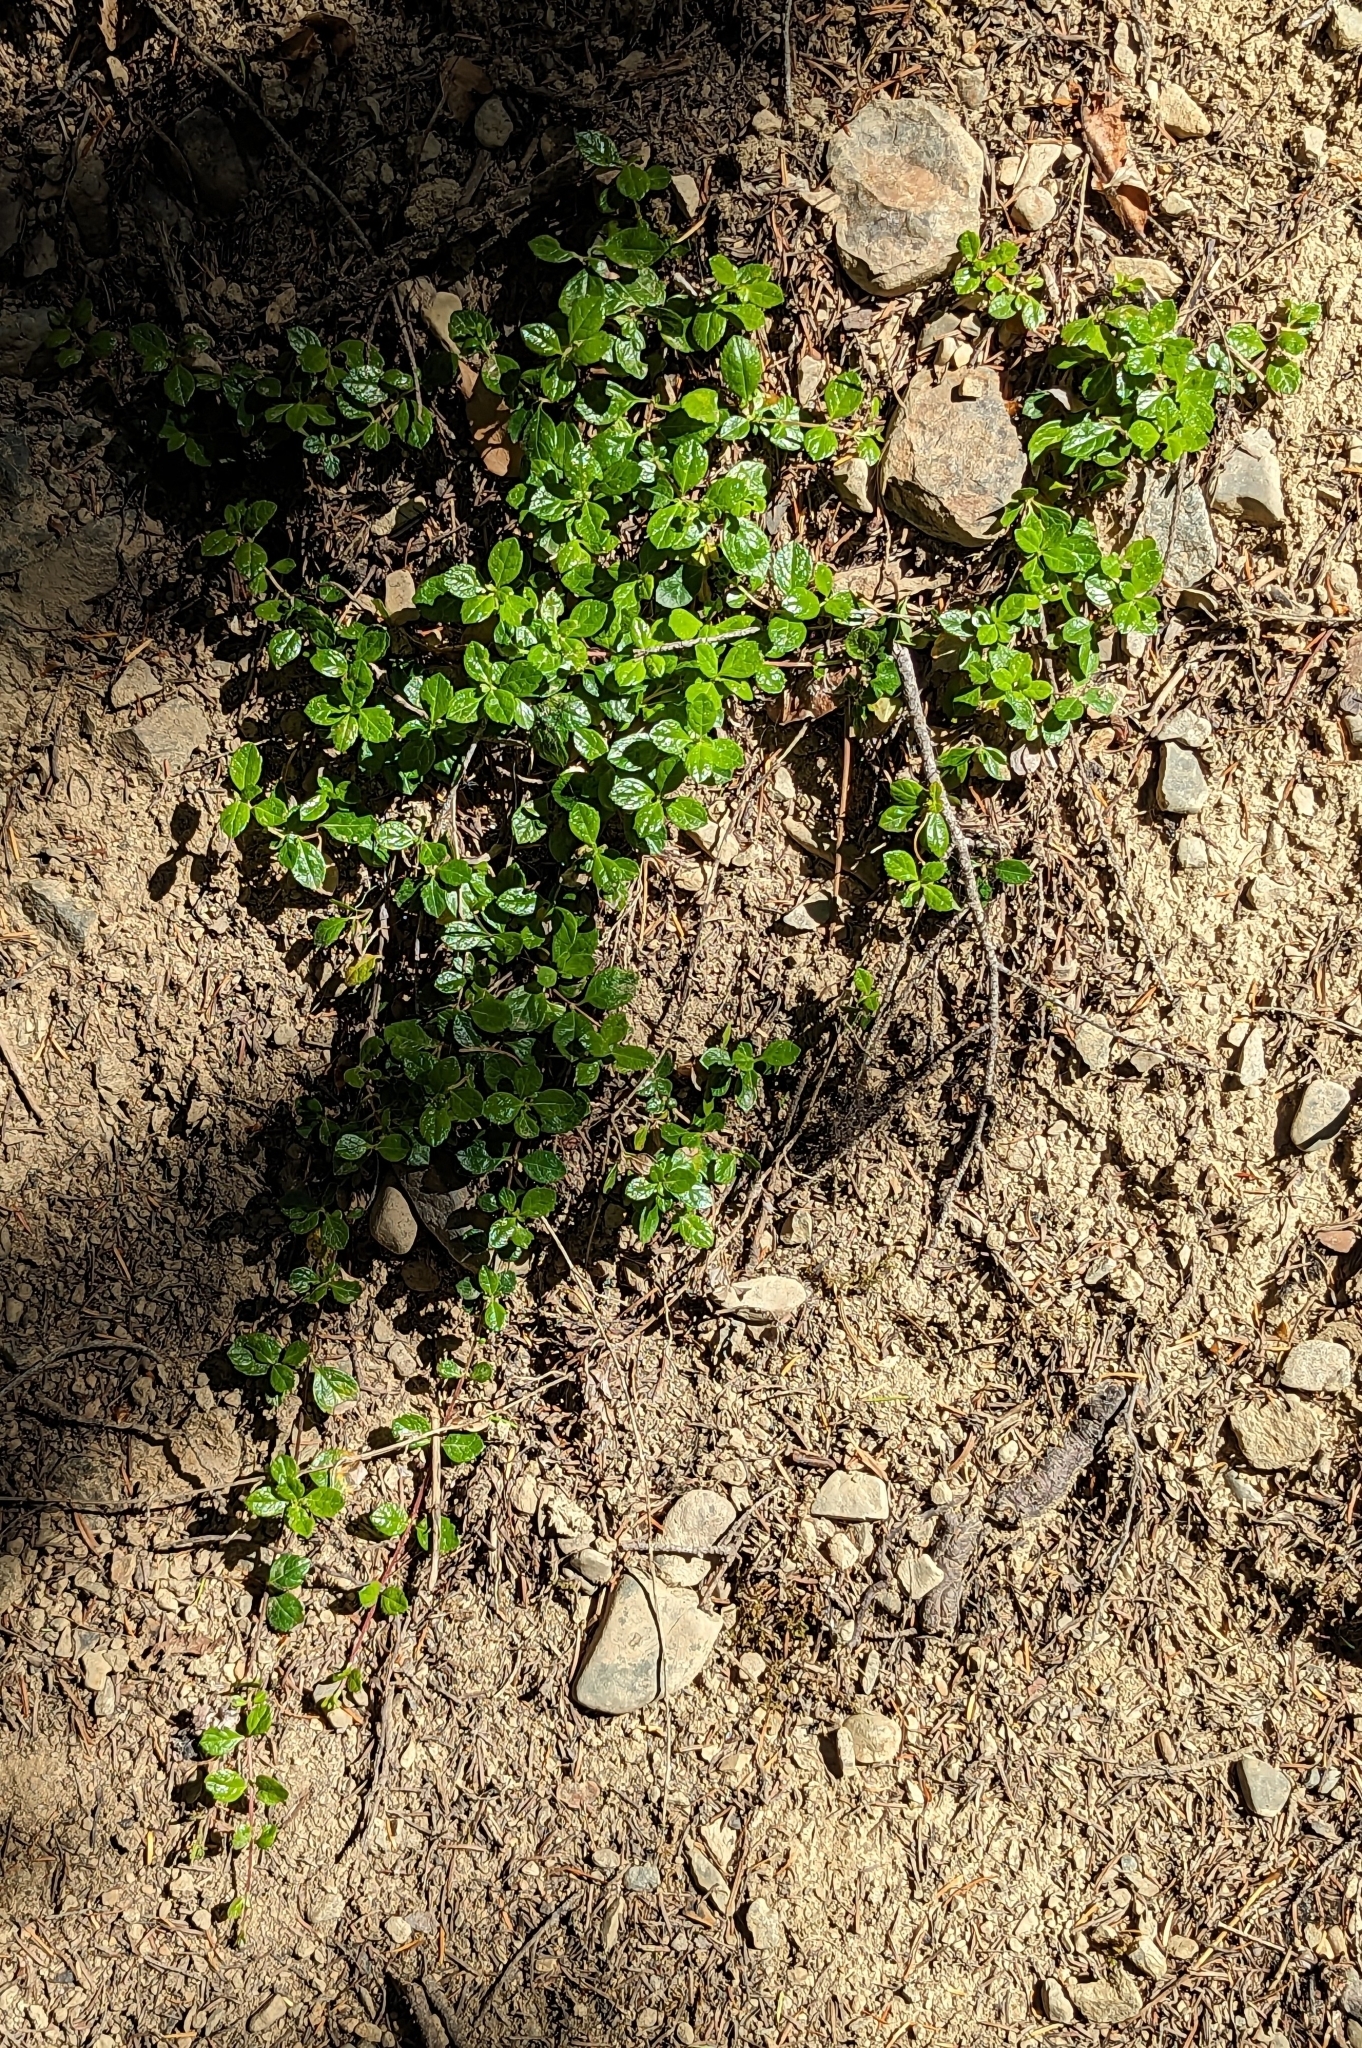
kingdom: Plantae
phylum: Tracheophyta
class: Magnoliopsida
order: Dipsacales
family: Caprifoliaceae
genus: Linnaea
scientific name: Linnaea borealis
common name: Twinflower
